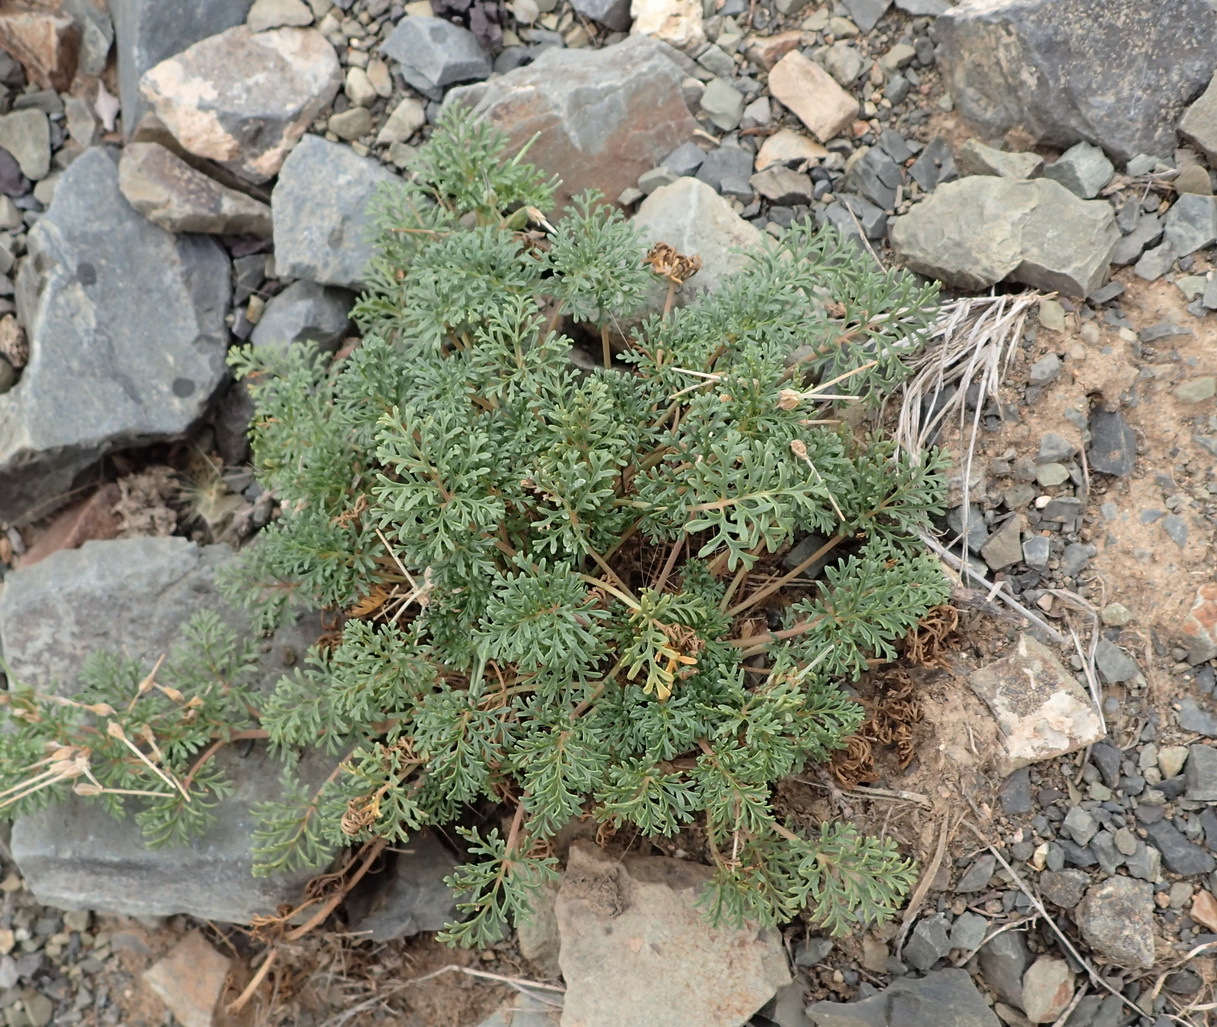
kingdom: Plantae
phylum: Tracheophyta
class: Magnoliopsida
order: Geraniales
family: Geraniaceae
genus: Pelargonium
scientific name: Pelargonium minimum
